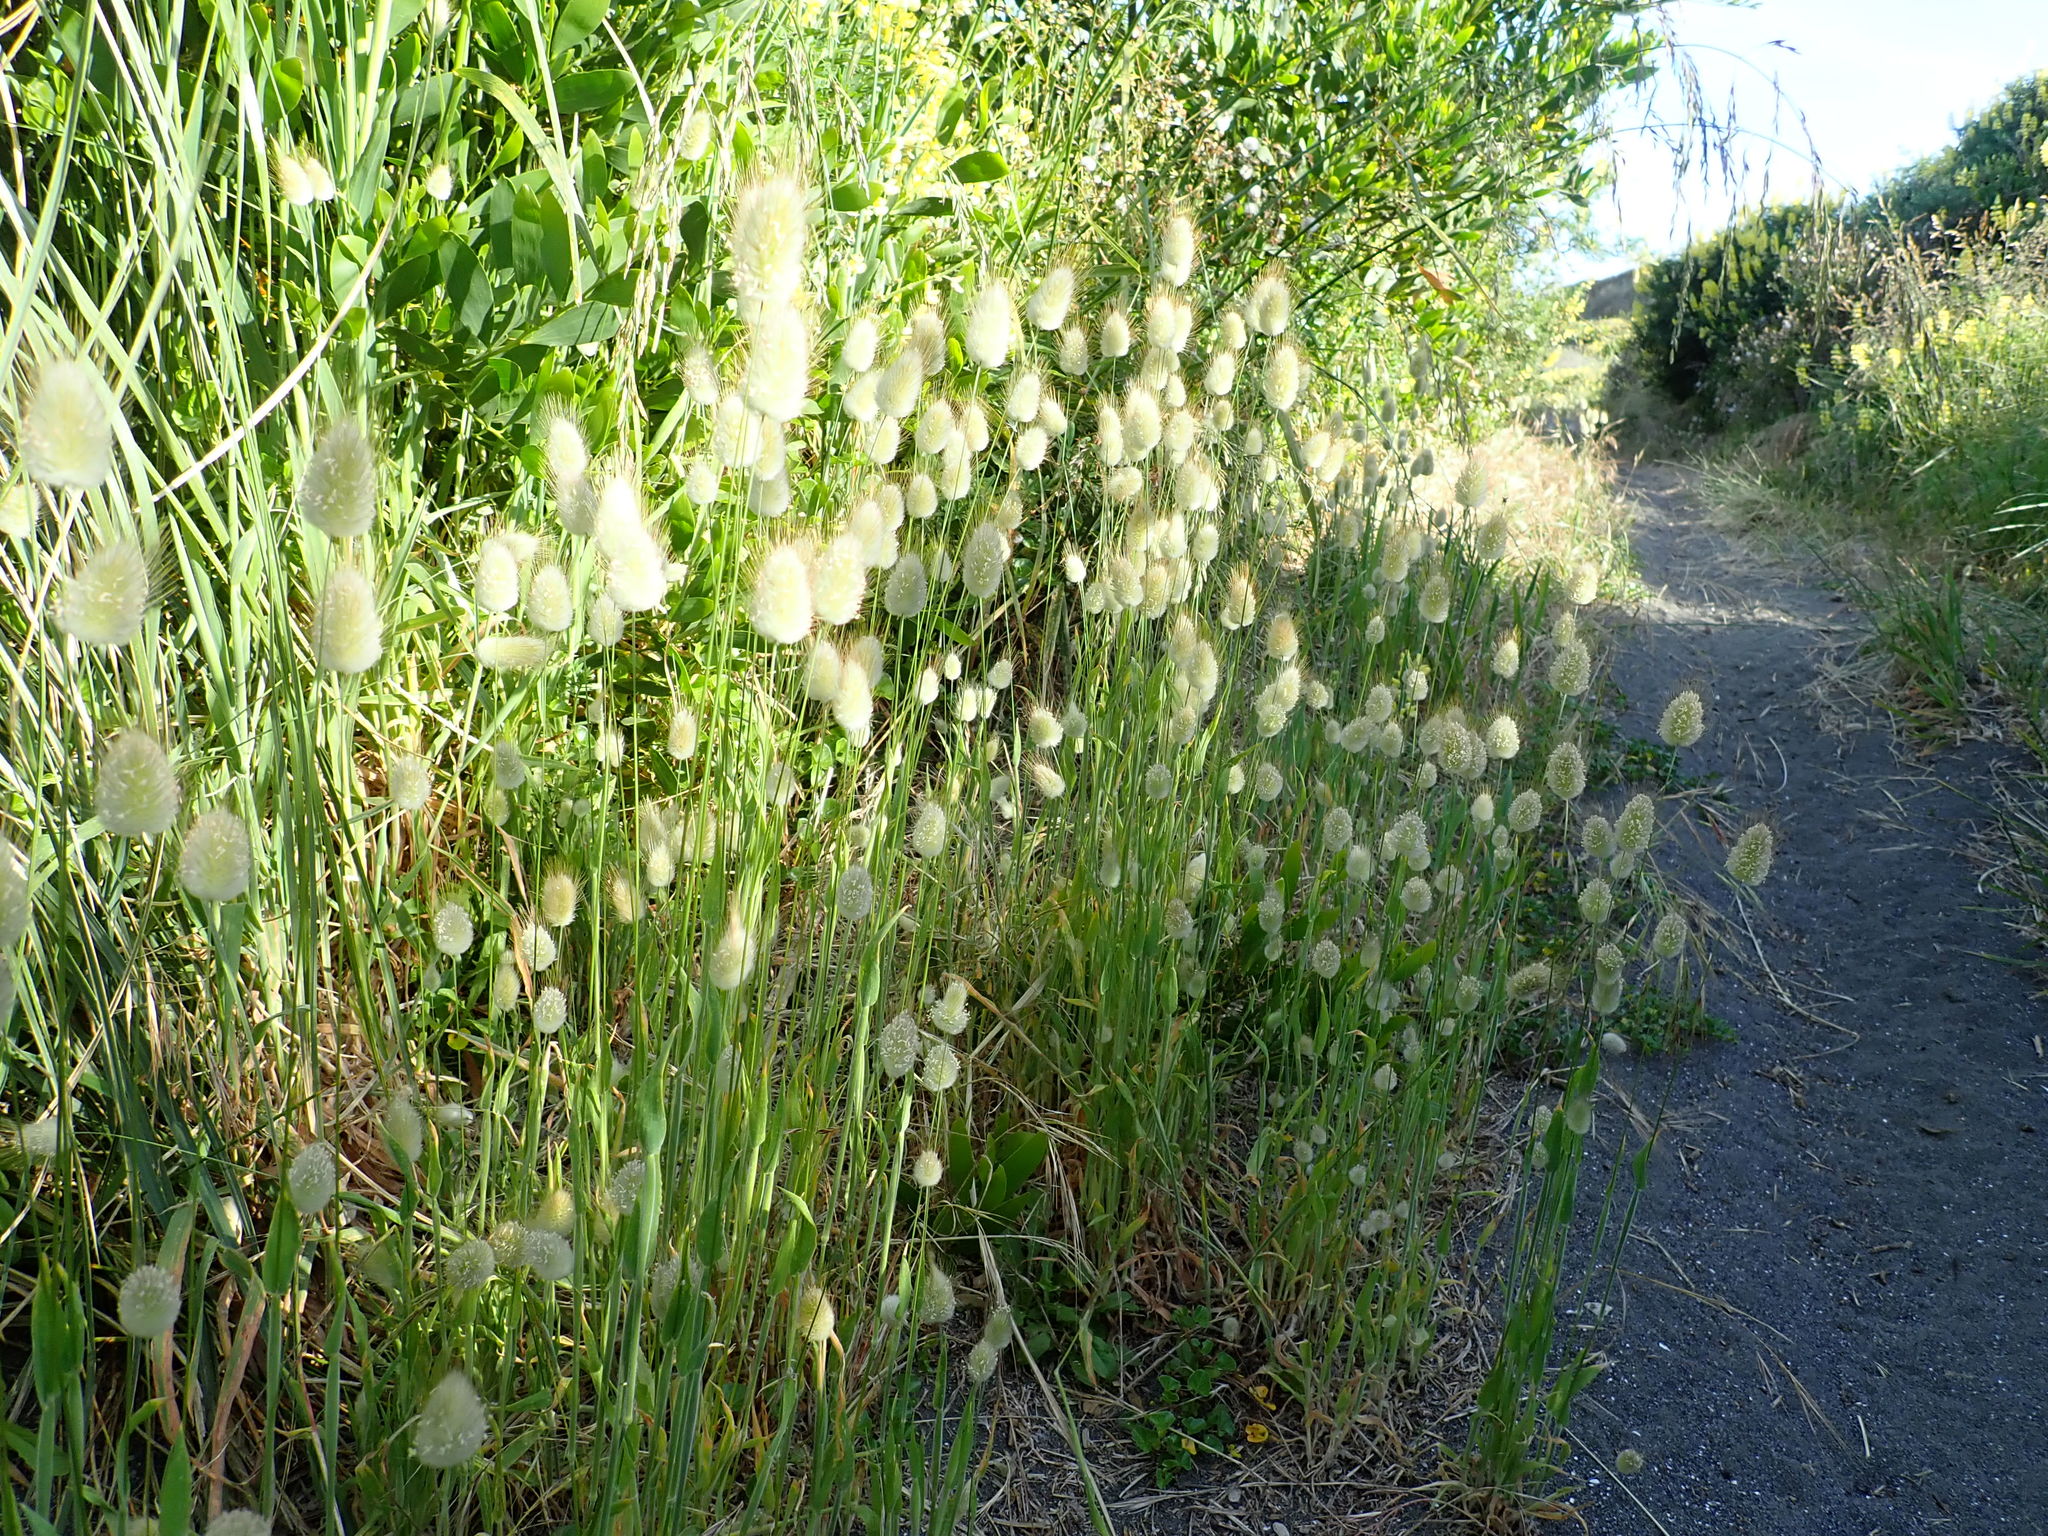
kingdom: Plantae
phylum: Tracheophyta
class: Liliopsida
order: Poales
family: Poaceae
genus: Lagurus
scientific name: Lagurus ovatus
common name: Hare's-tail
